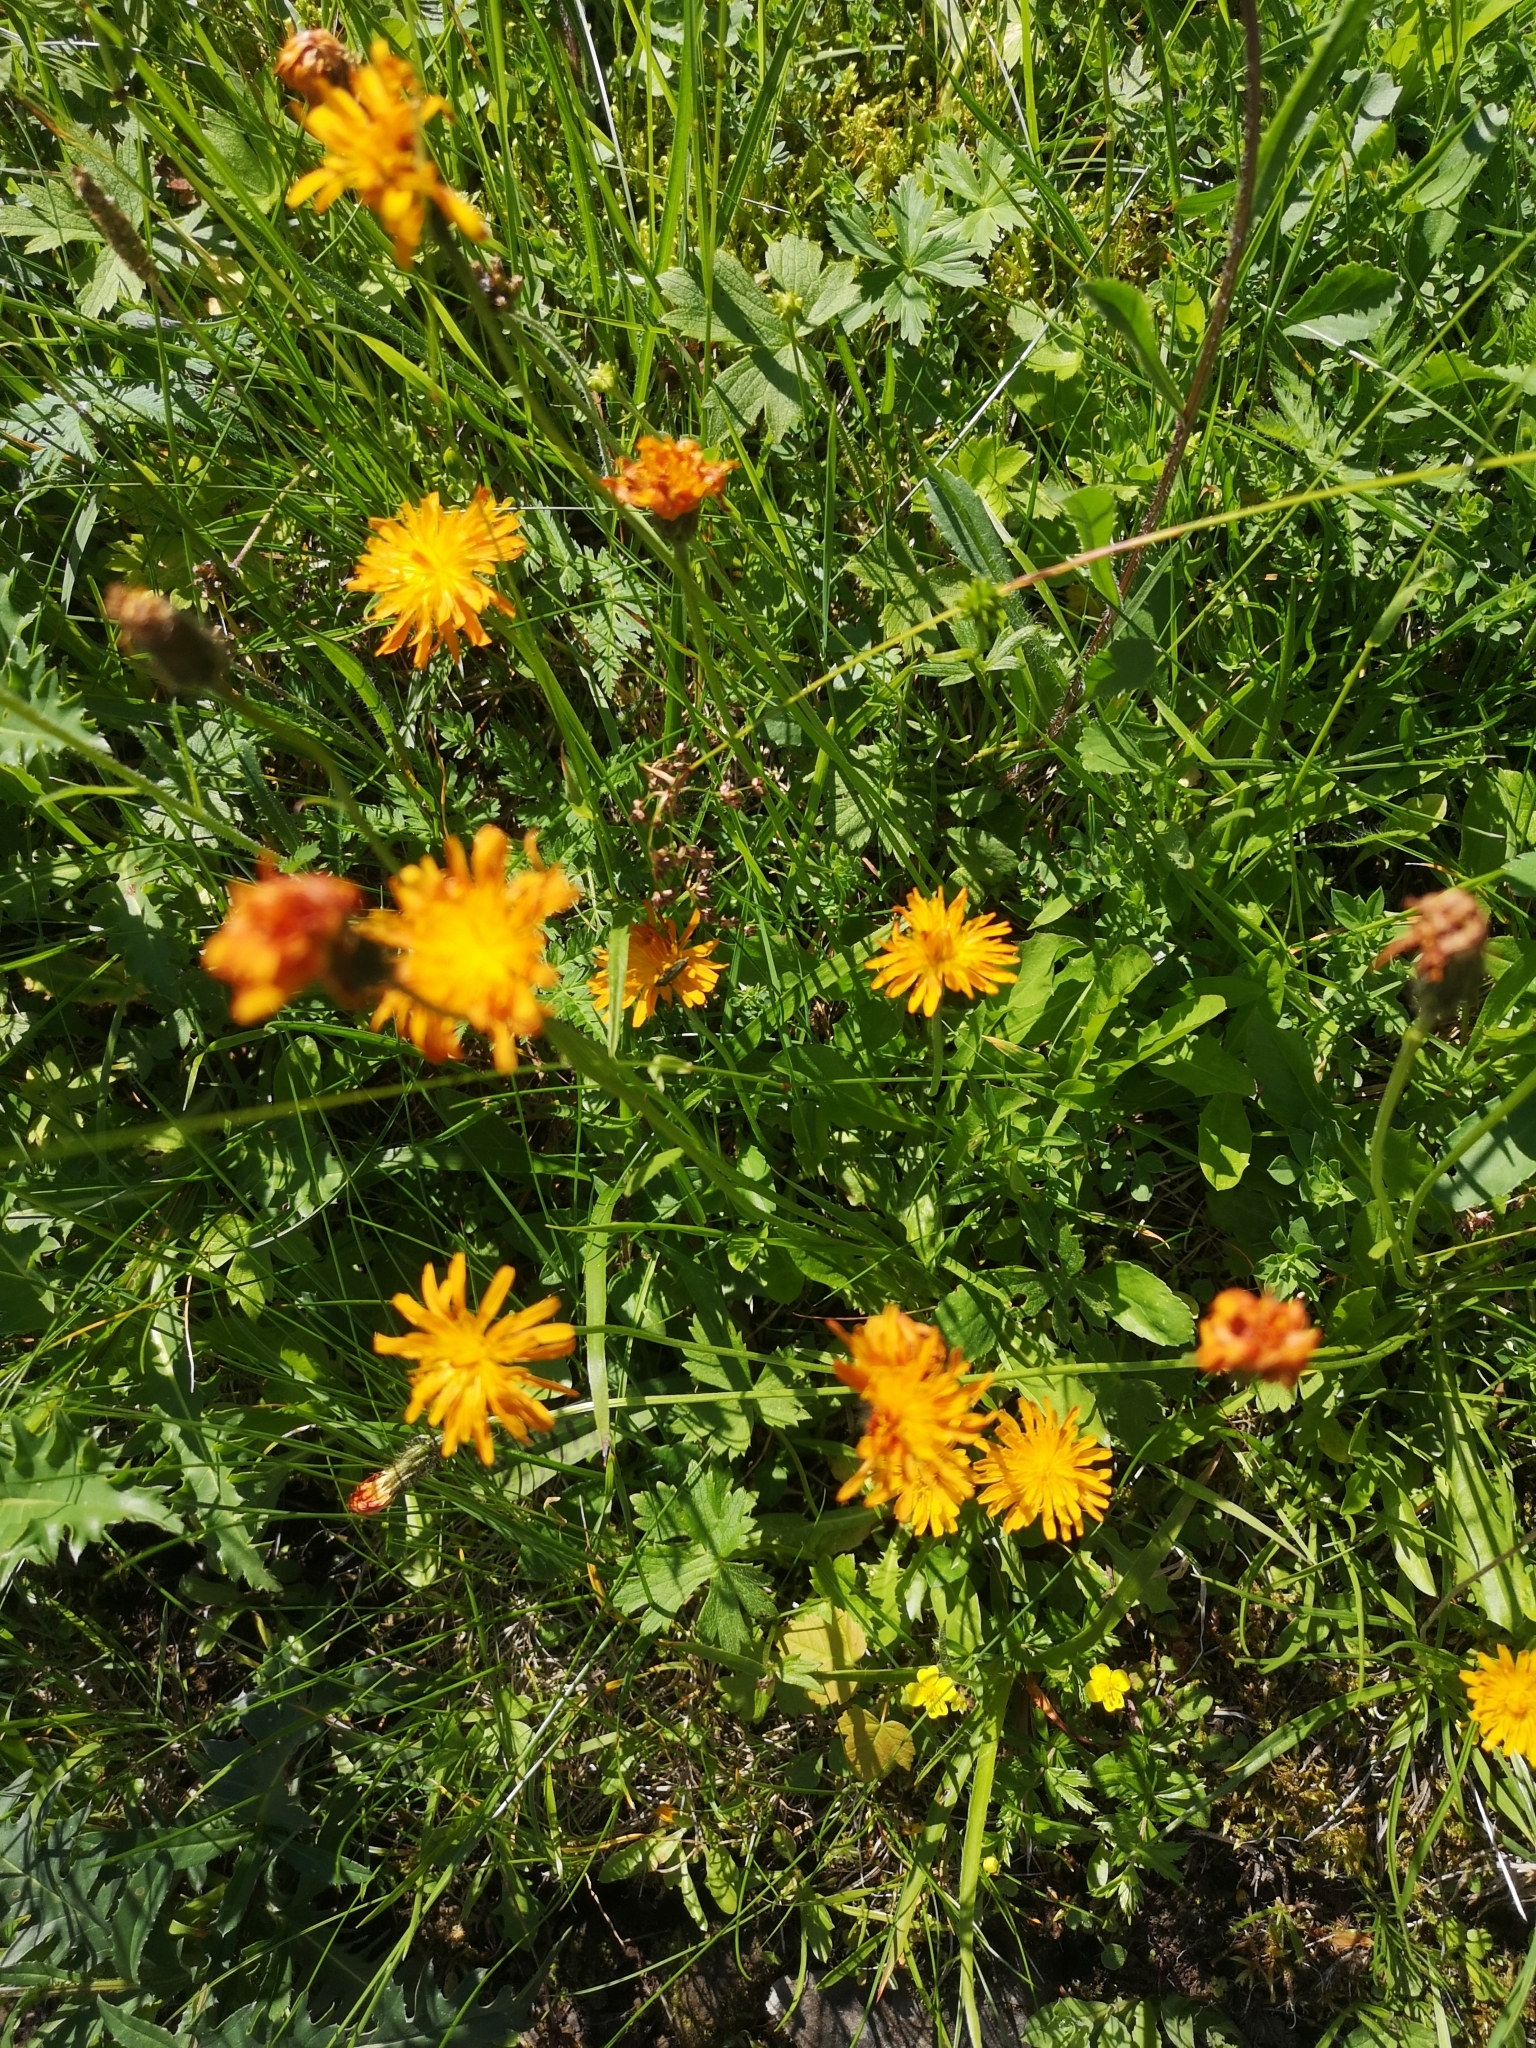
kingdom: Plantae
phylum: Tracheophyta
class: Magnoliopsida
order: Asterales
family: Asteraceae
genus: Crepis
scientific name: Crepis aurea
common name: Golden hawk's-beard
